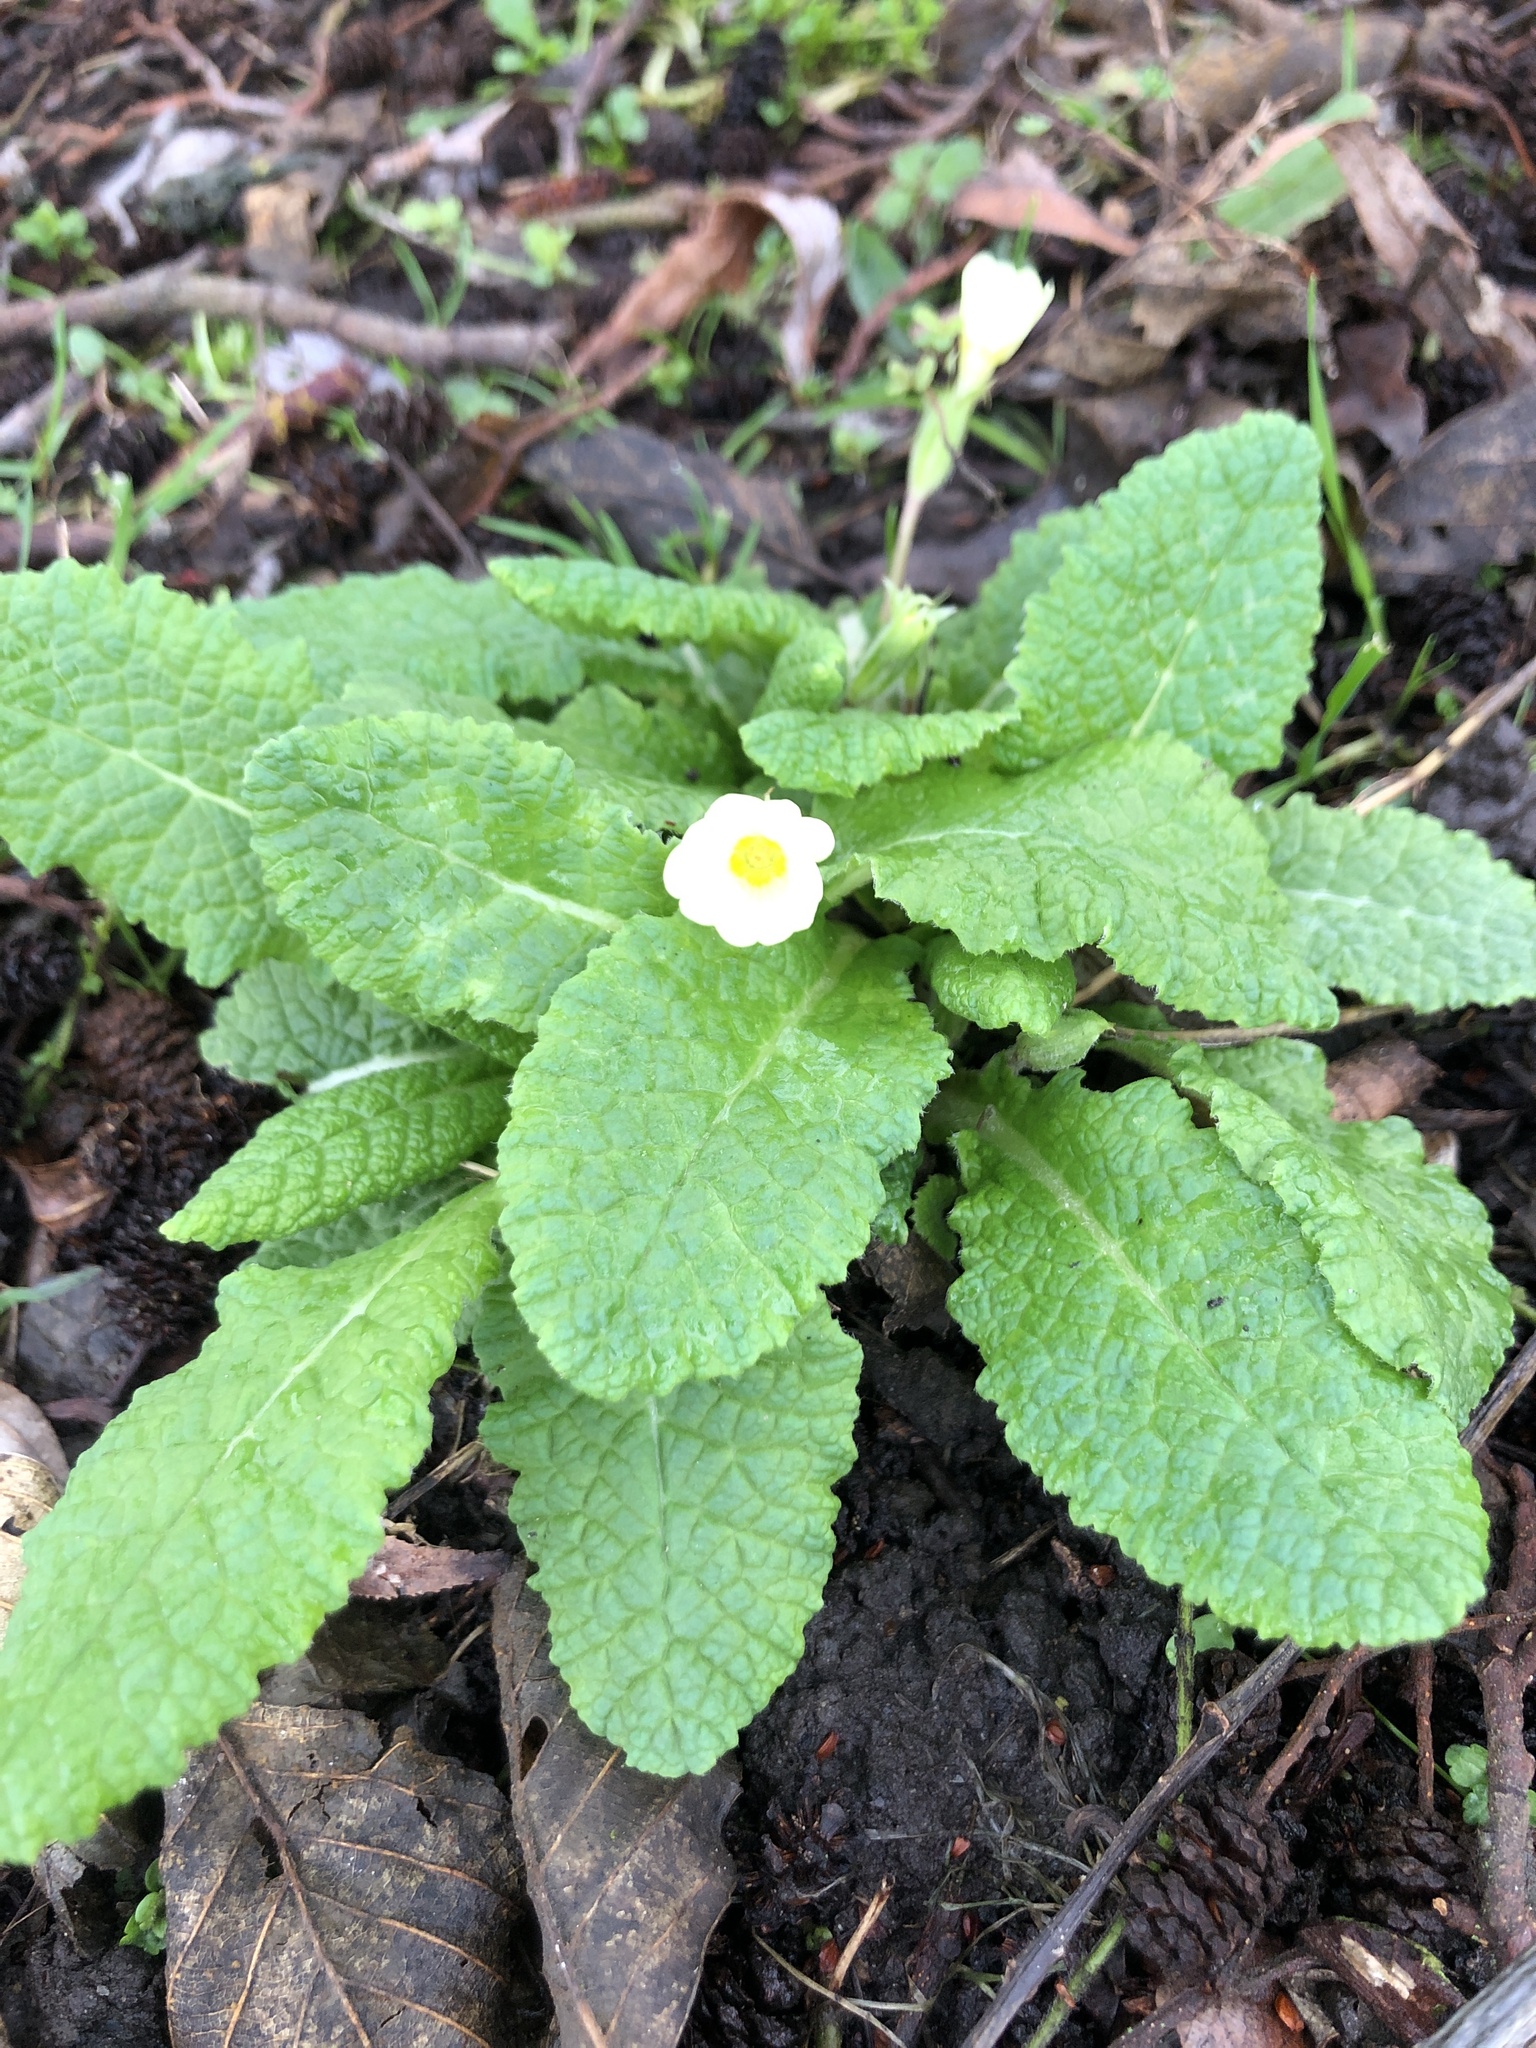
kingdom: Plantae
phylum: Tracheophyta
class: Magnoliopsida
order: Ericales
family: Primulaceae
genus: Primula
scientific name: Primula vulgaris
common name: Primrose
